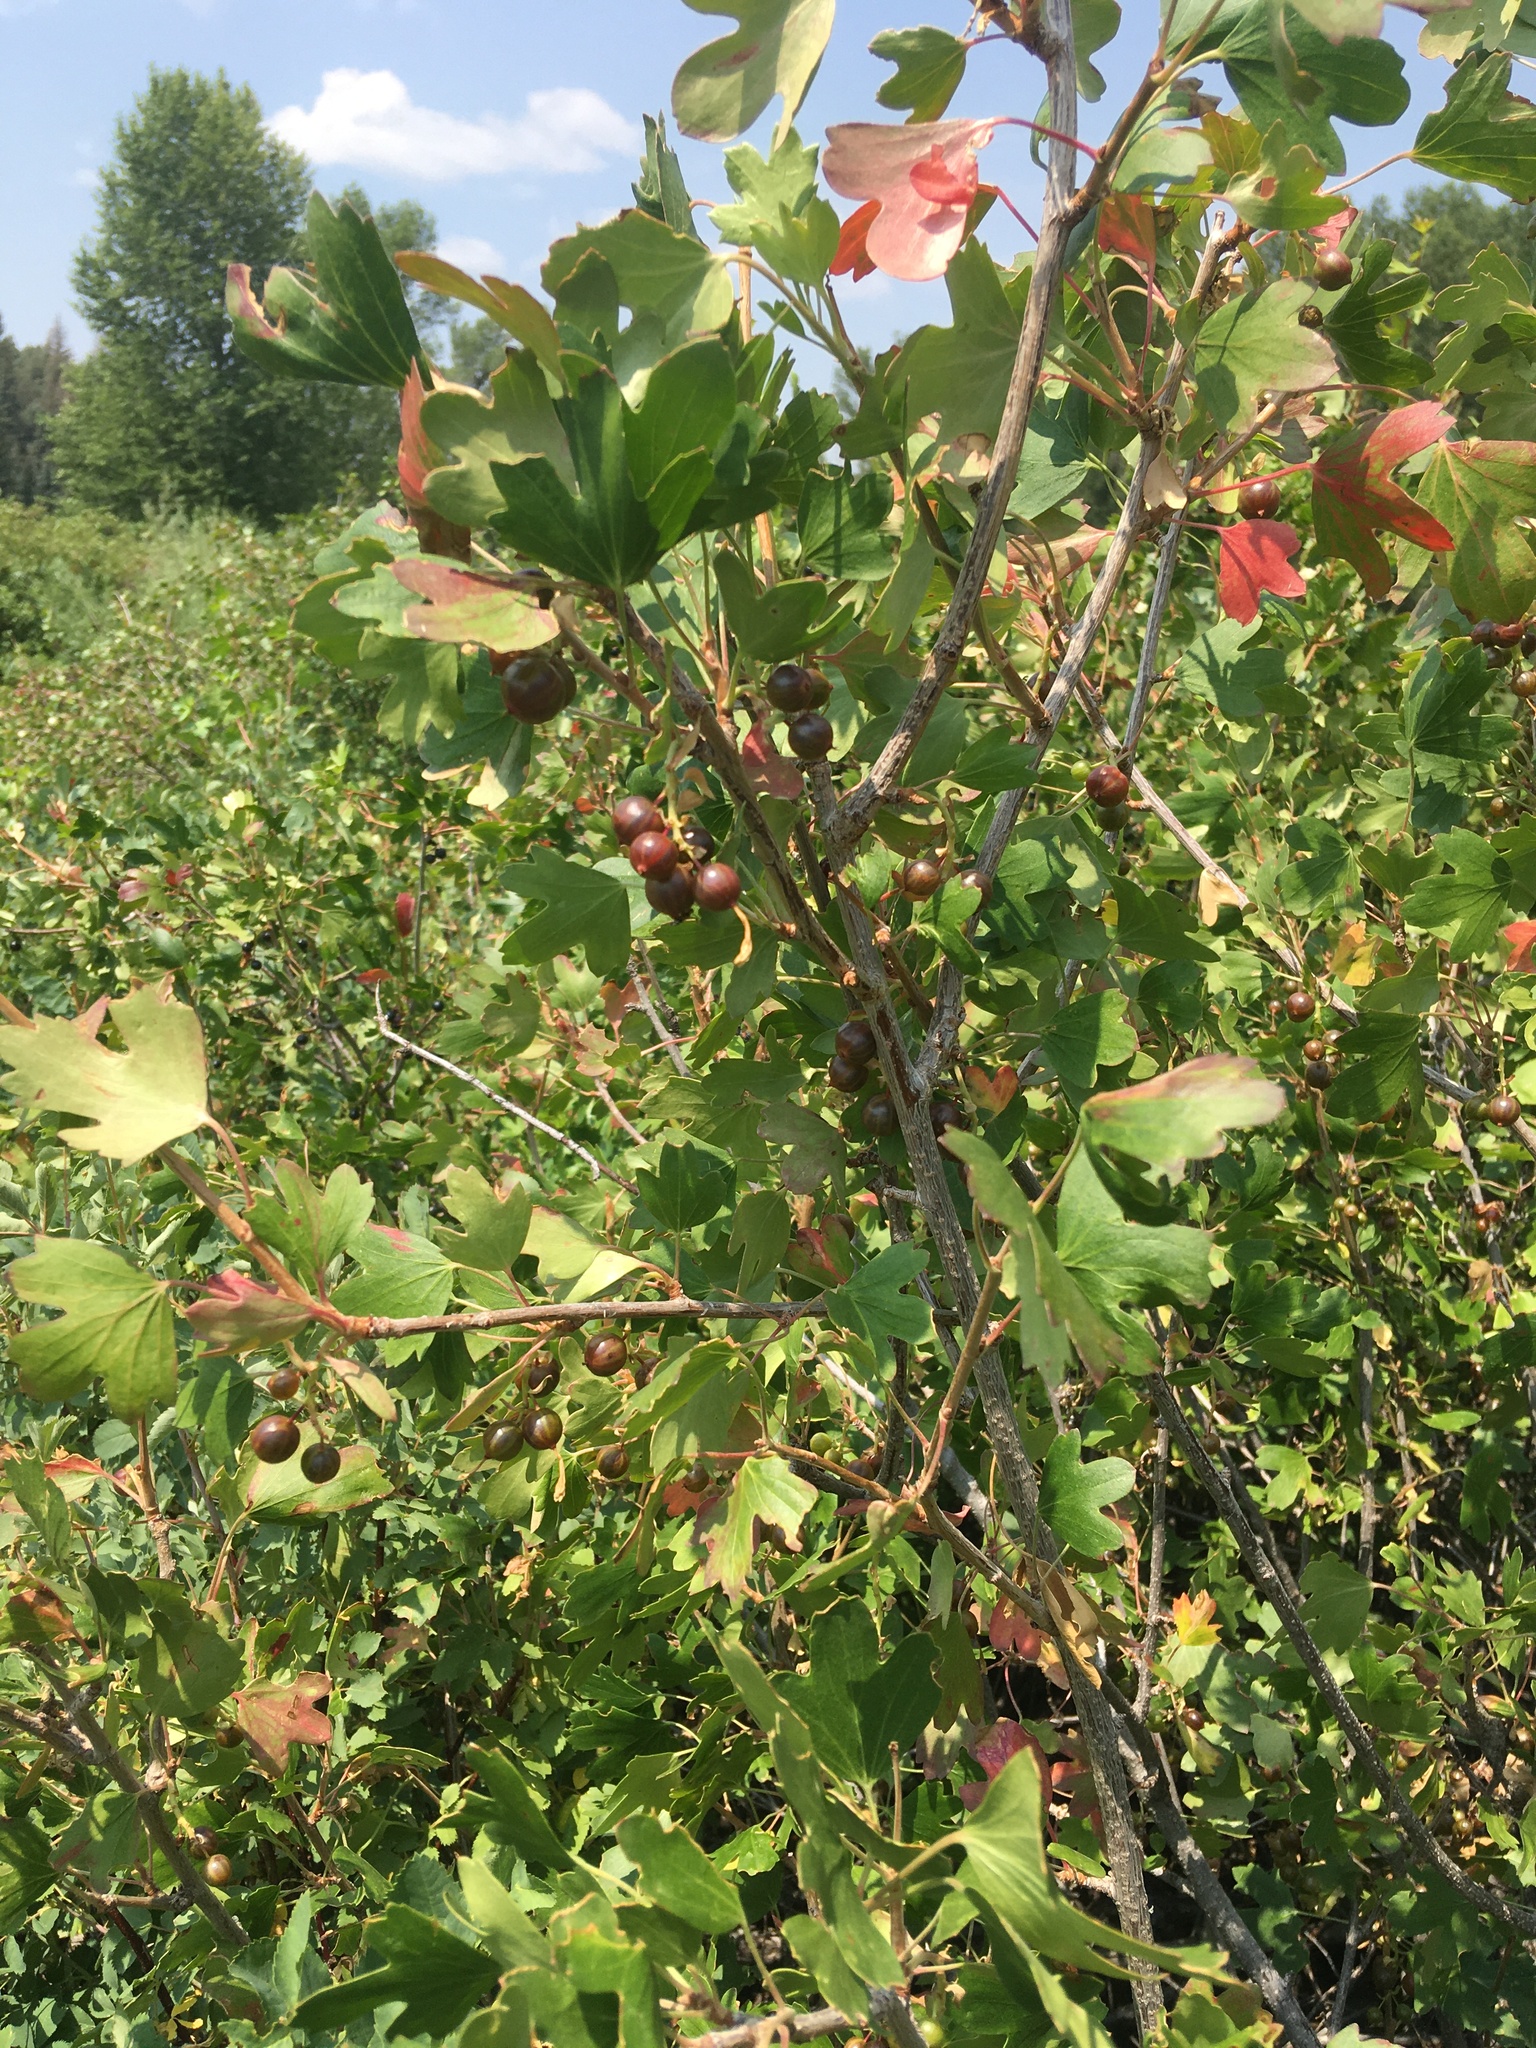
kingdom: Plantae
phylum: Tracheophyta
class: Magnoliopsida
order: Saxifragales
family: Grossulariaceae
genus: Ribes
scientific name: Ribes aureum
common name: Golden currant
